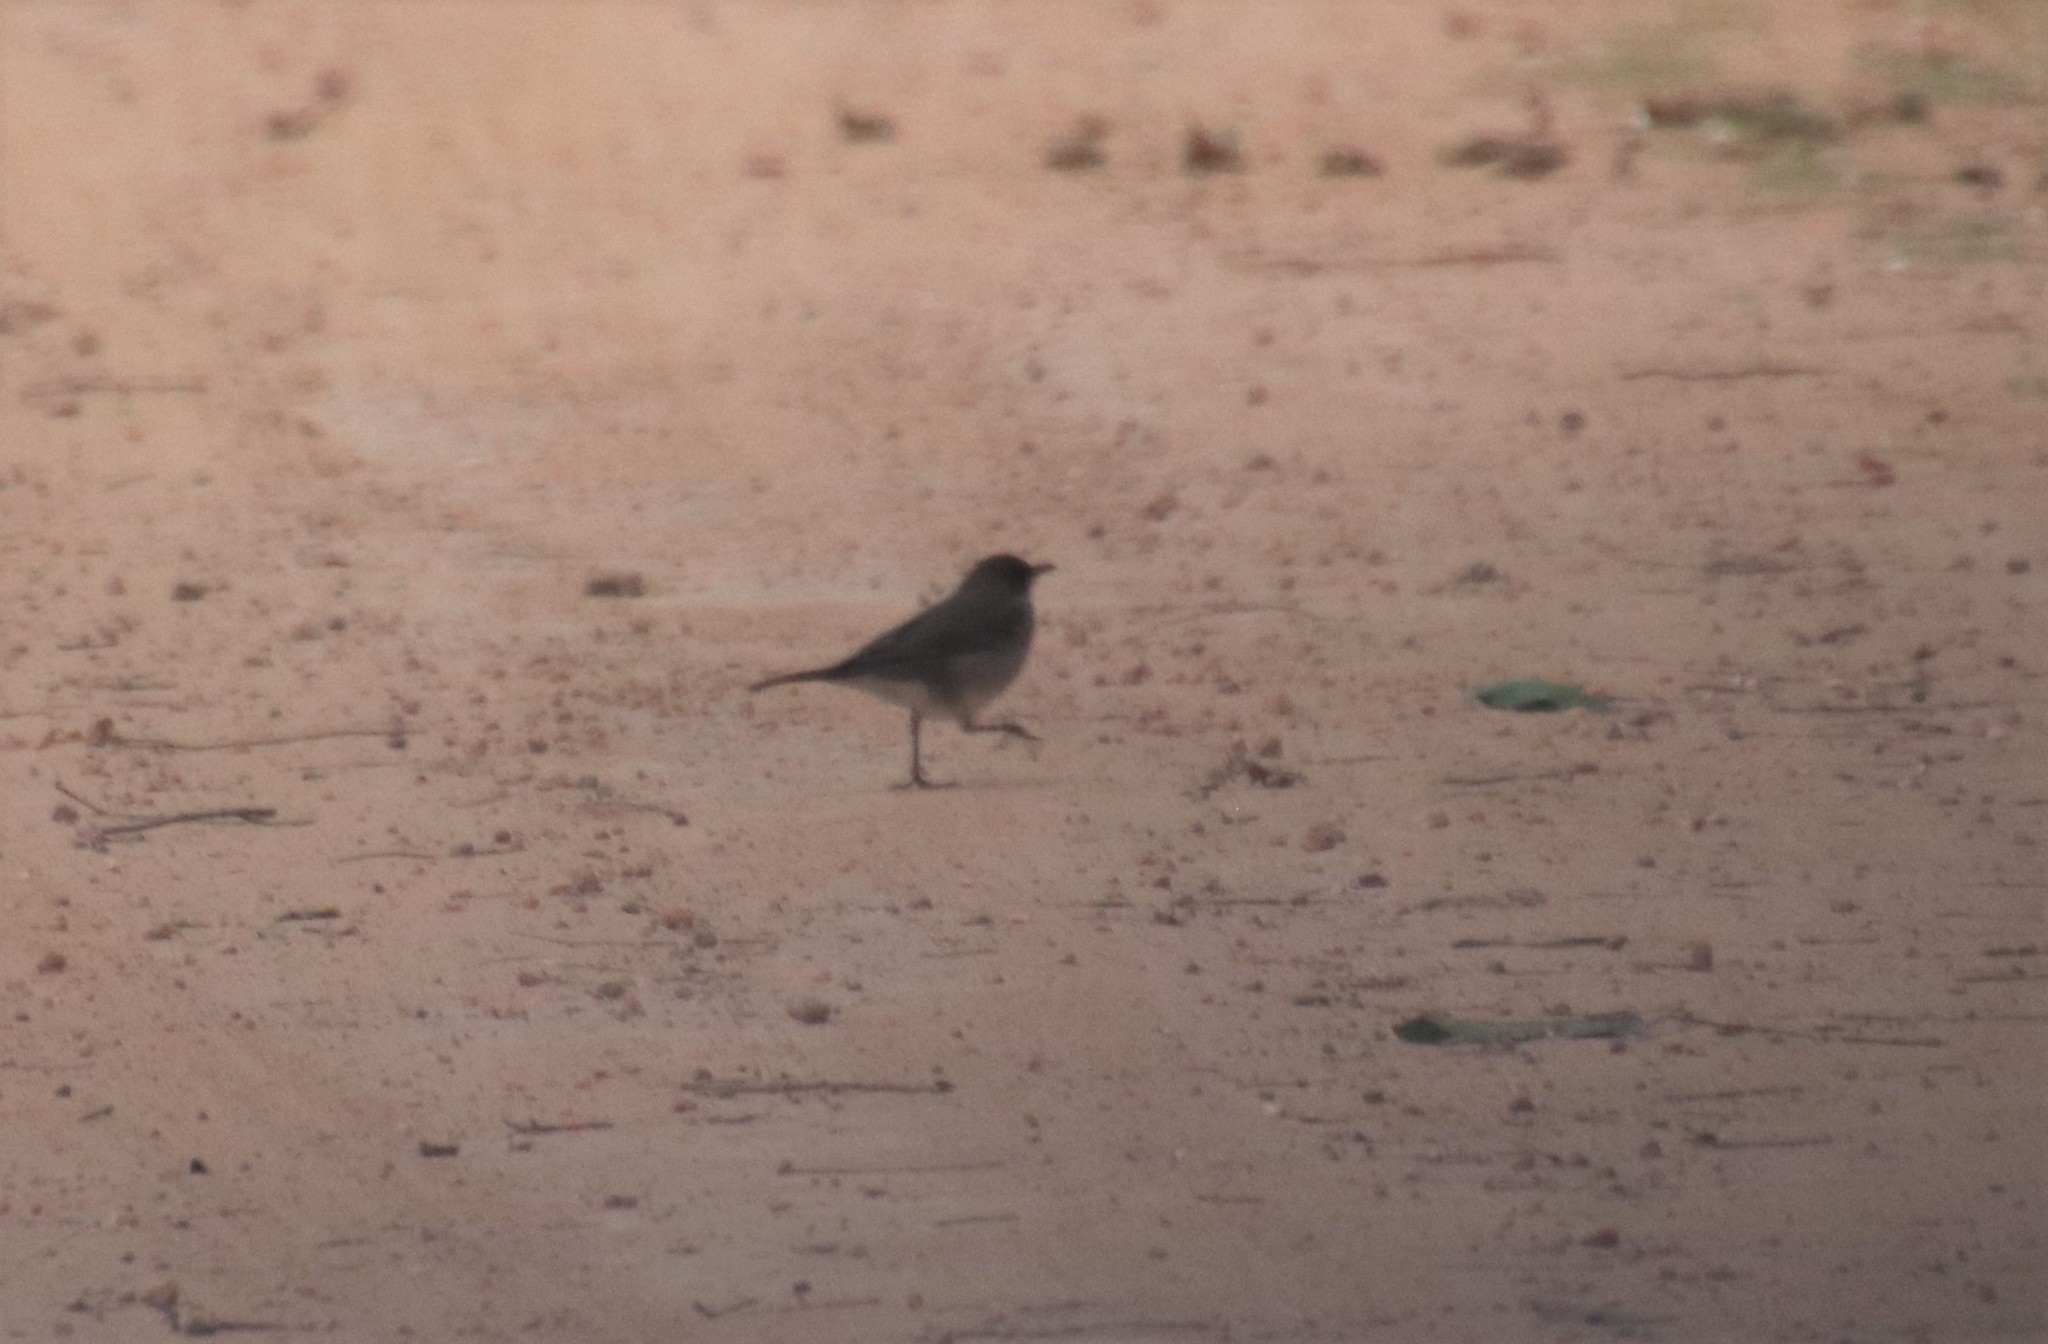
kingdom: Animalia
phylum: Chordata
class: Aves
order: Passeriformes
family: Turdidae
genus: Turdus
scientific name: Turdus amaurochalinus
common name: Creamy-bellied thrush
